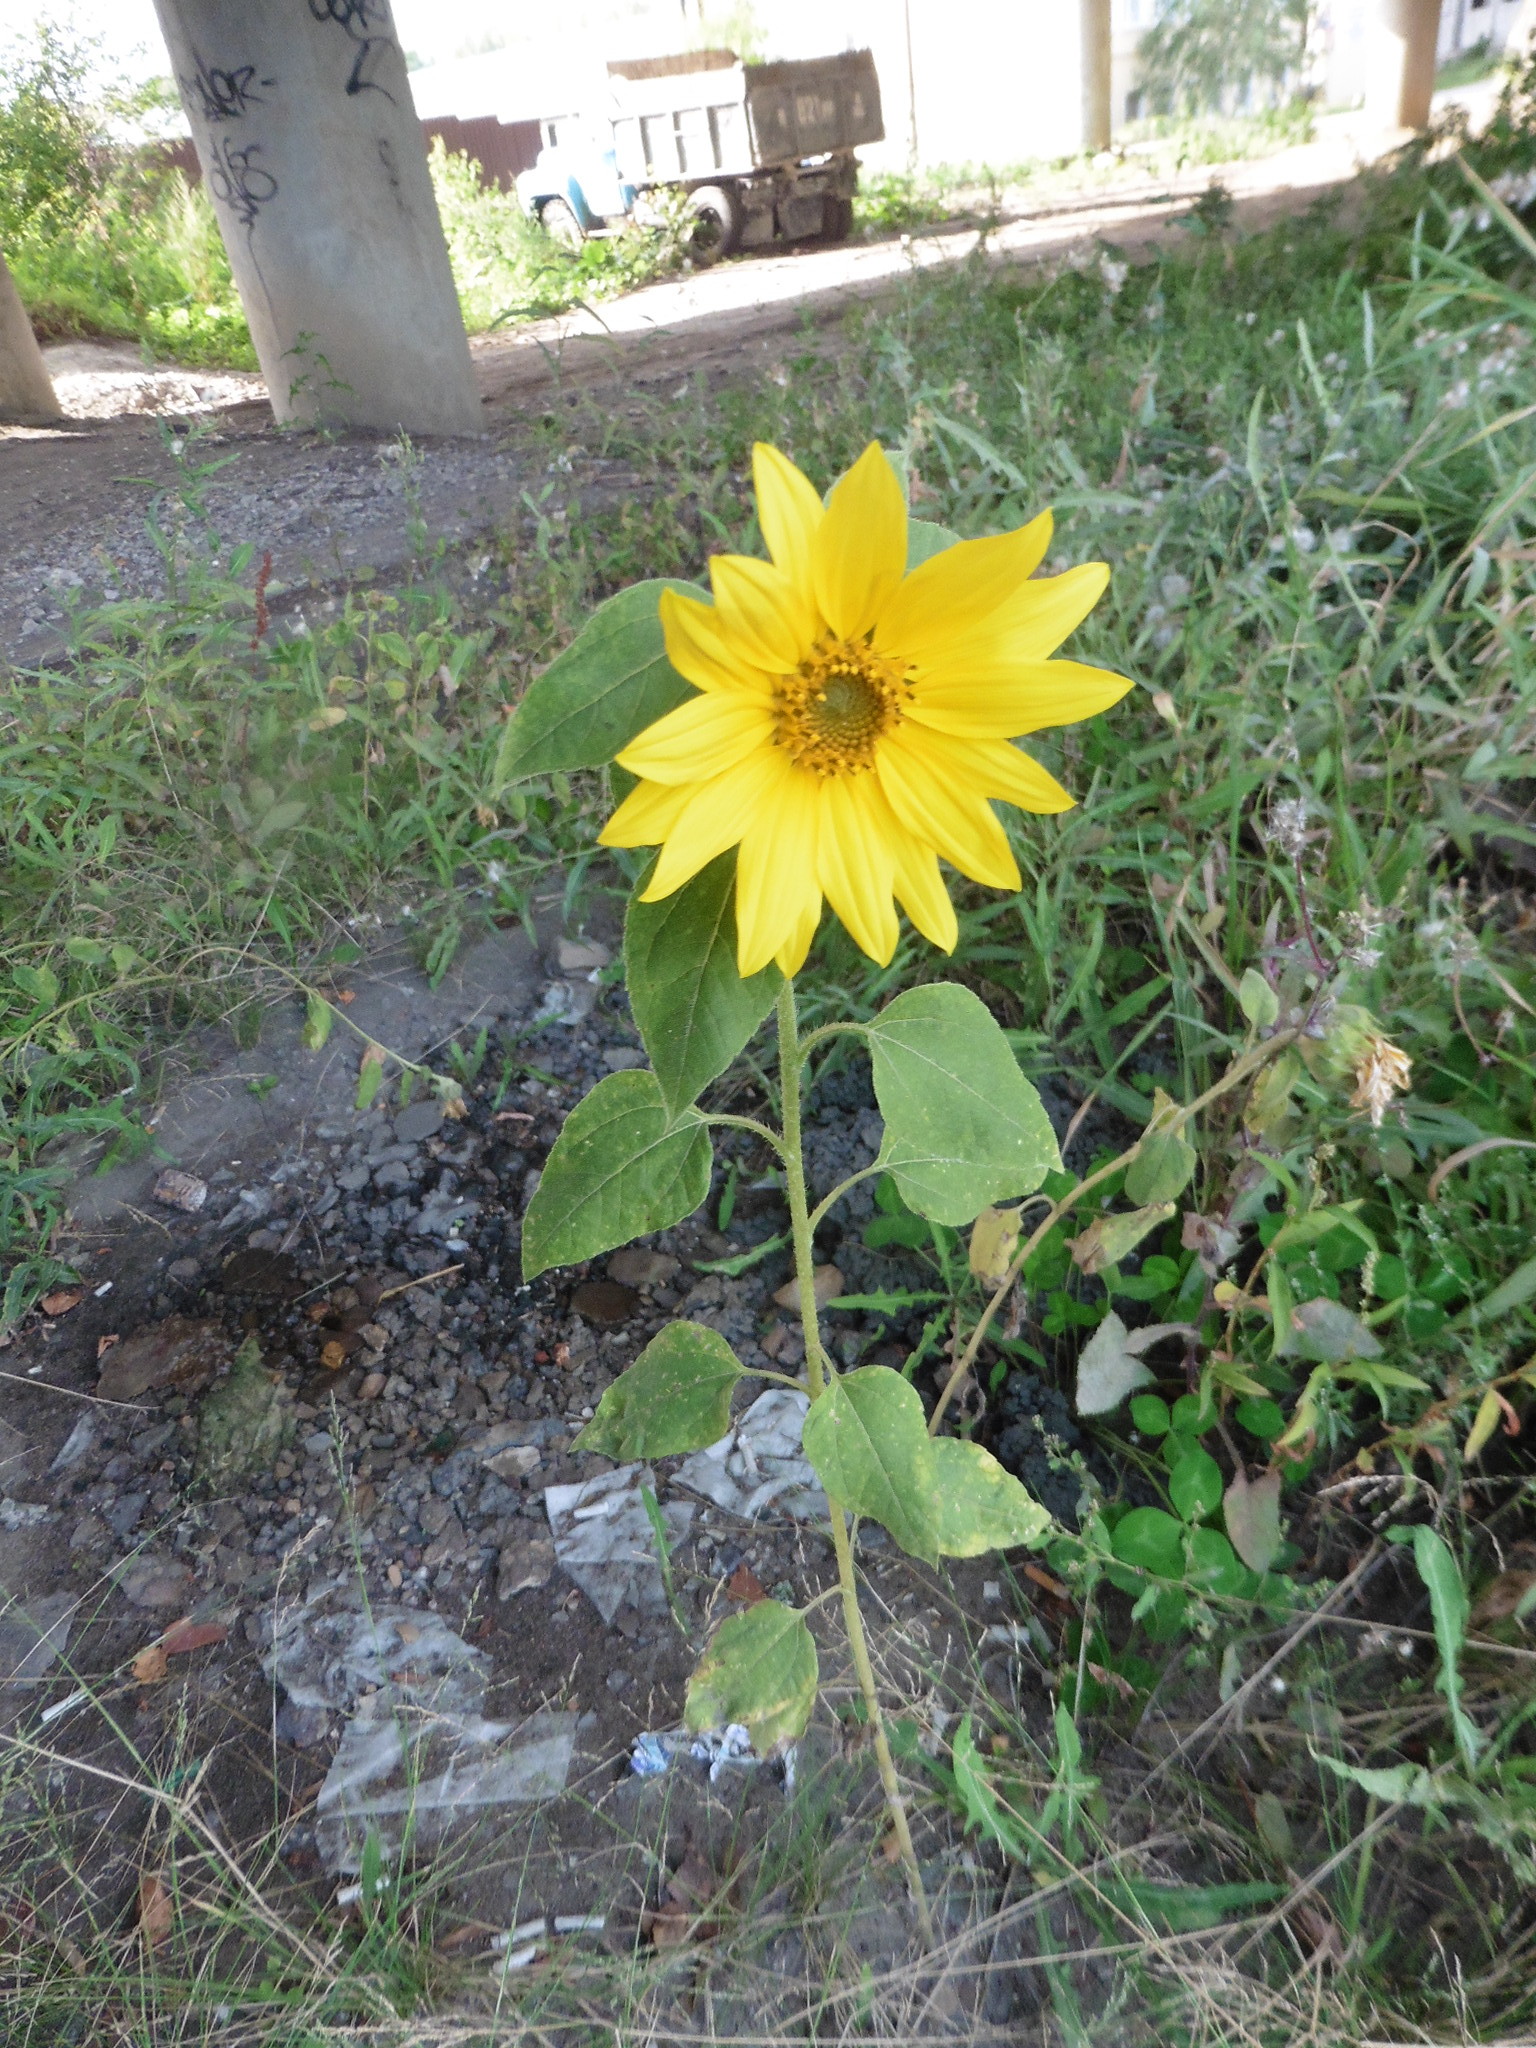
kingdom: Plantae
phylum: Tracheophyta
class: Magnoliopsida
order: Asterales
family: Asteraceae
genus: Helianthus
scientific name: Helianthus annuus
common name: Sunflower
